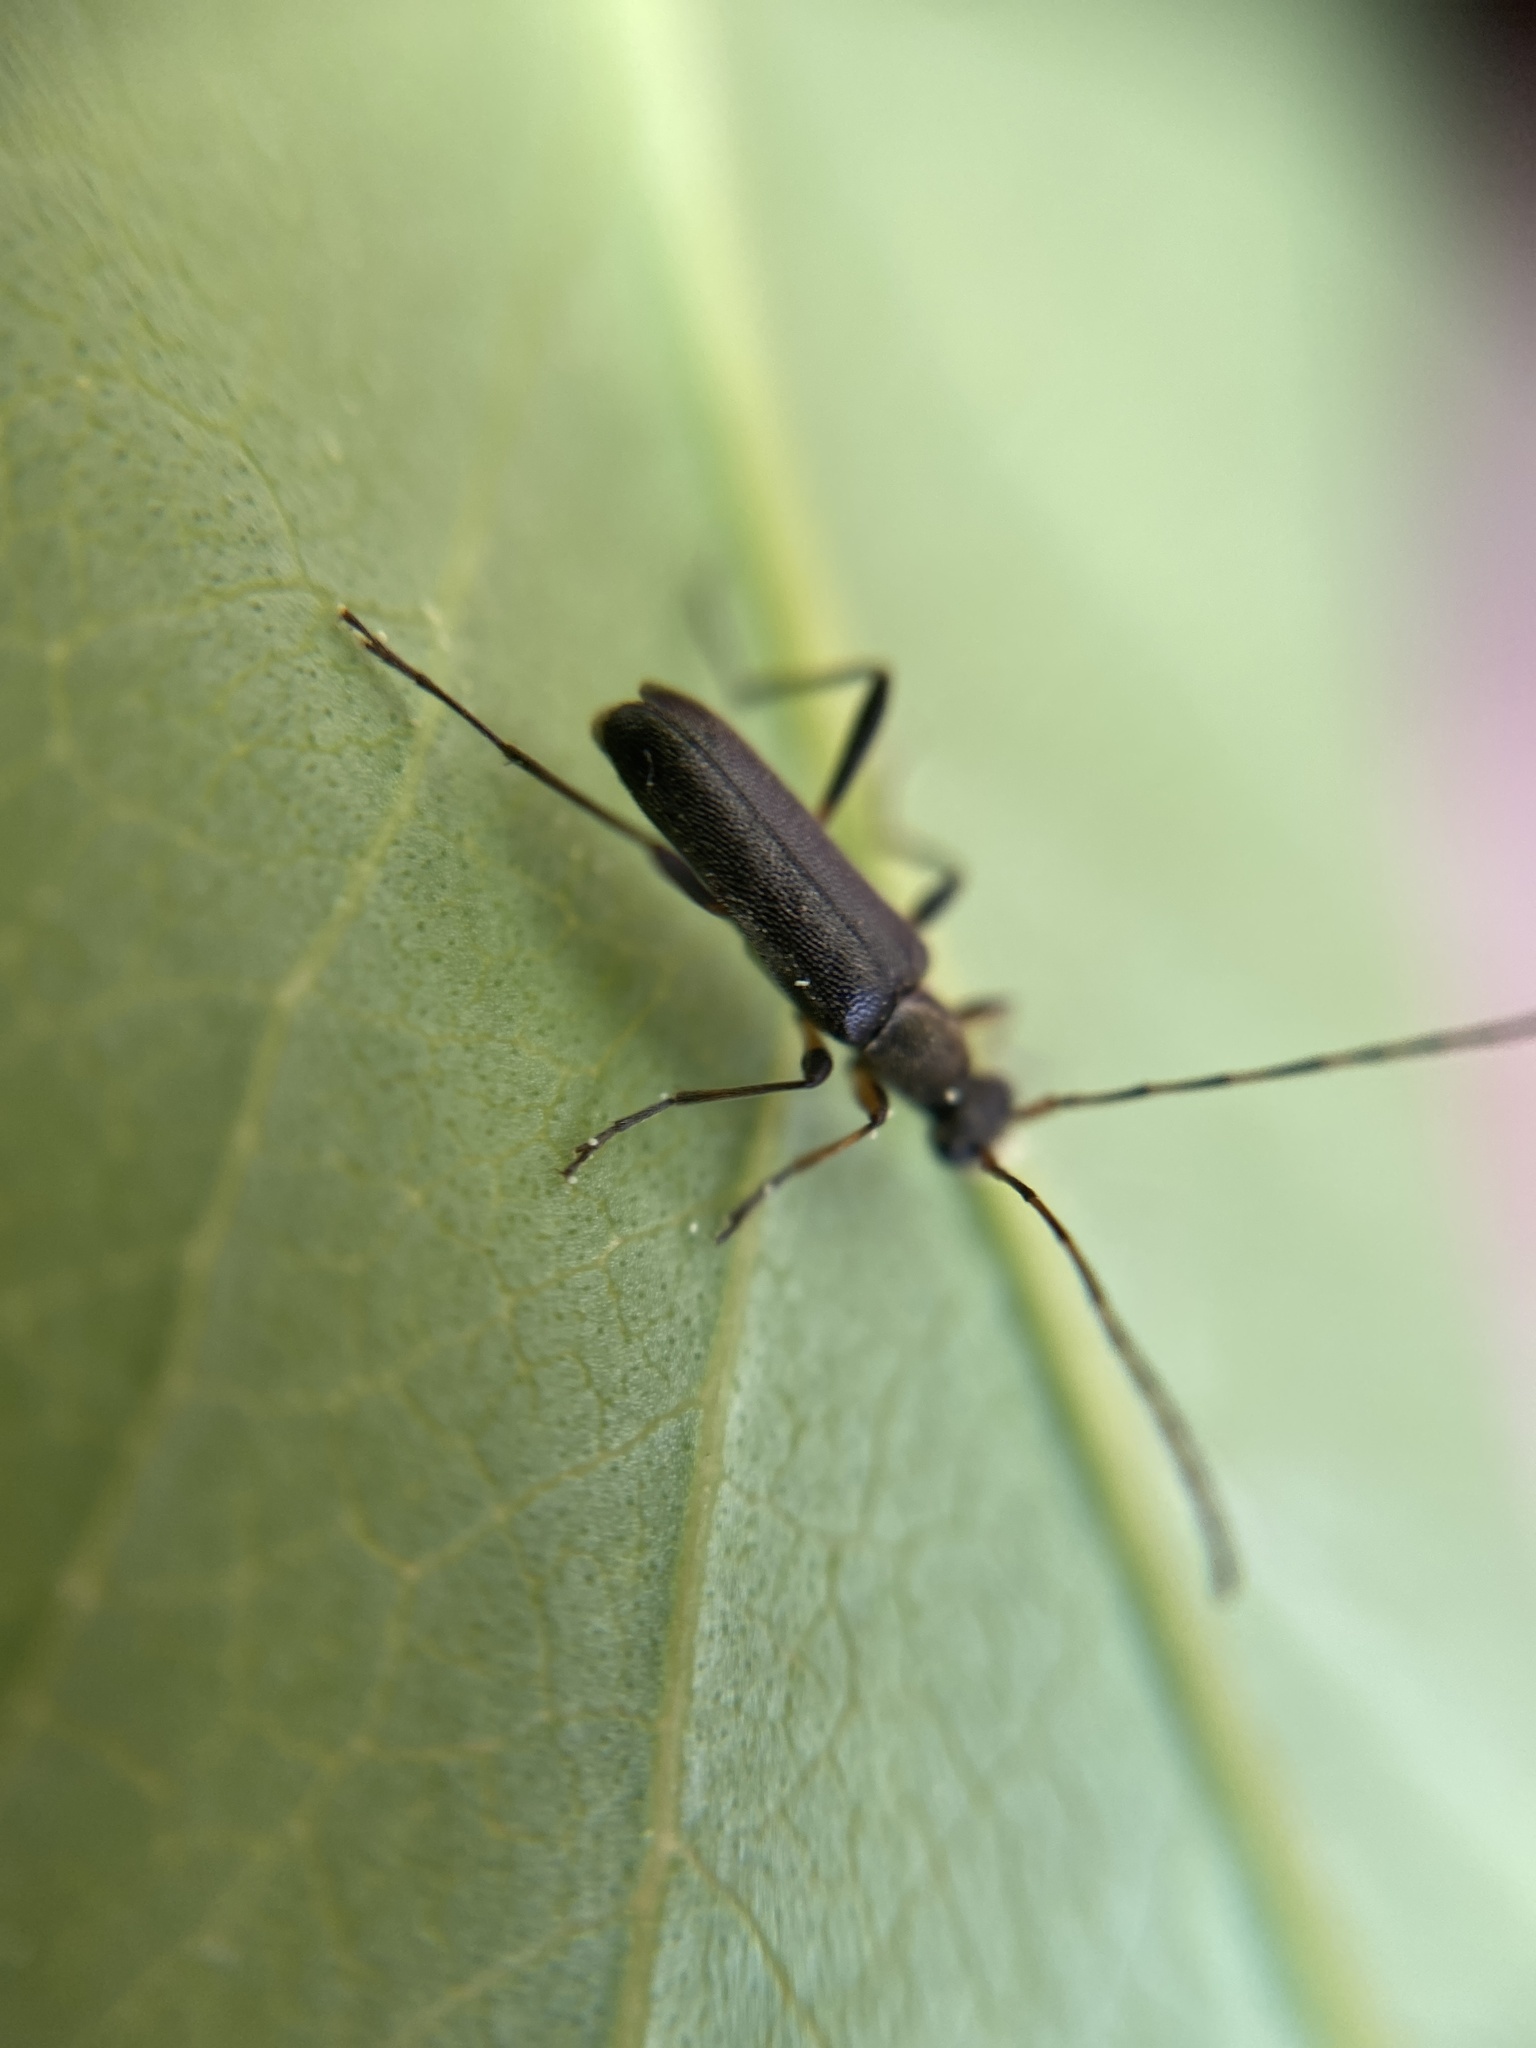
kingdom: Animalia
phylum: Arthropoda
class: Insecta
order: Coleoptera
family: Cerambycidae
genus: Grammoptera
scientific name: Grammoptera ruficornis
